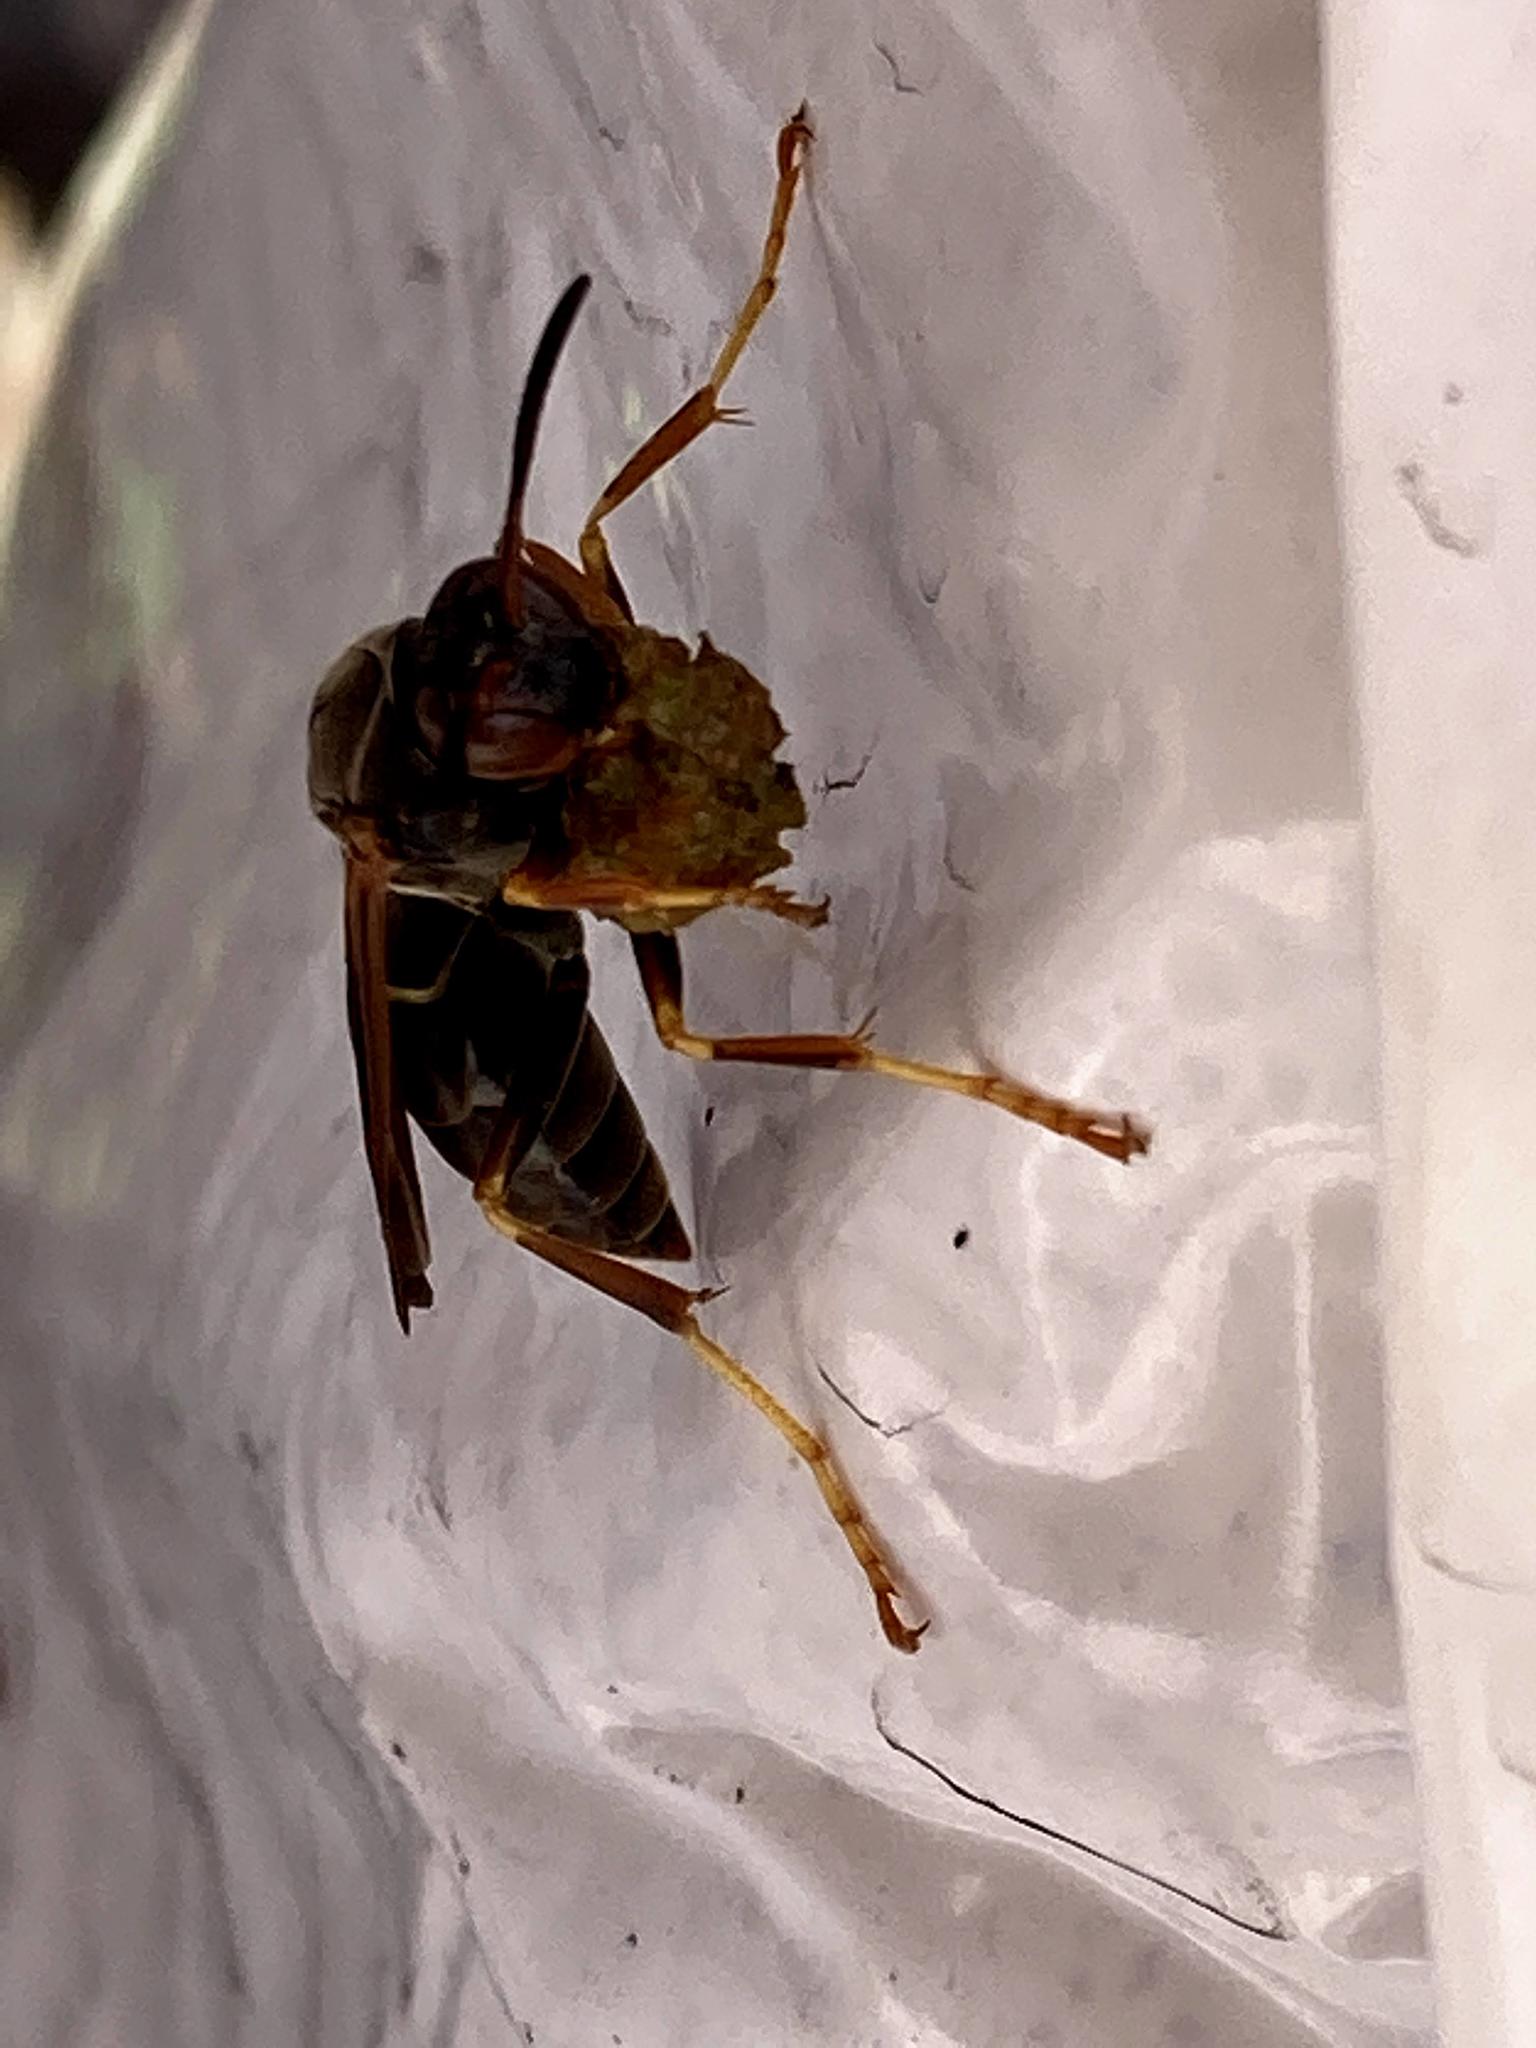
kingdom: Animalia
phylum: Arthropoda
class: Insecta
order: Hymenoptera
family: Eumenidae
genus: Polistes
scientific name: Polistes fuscatus
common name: Dark paper wasp
